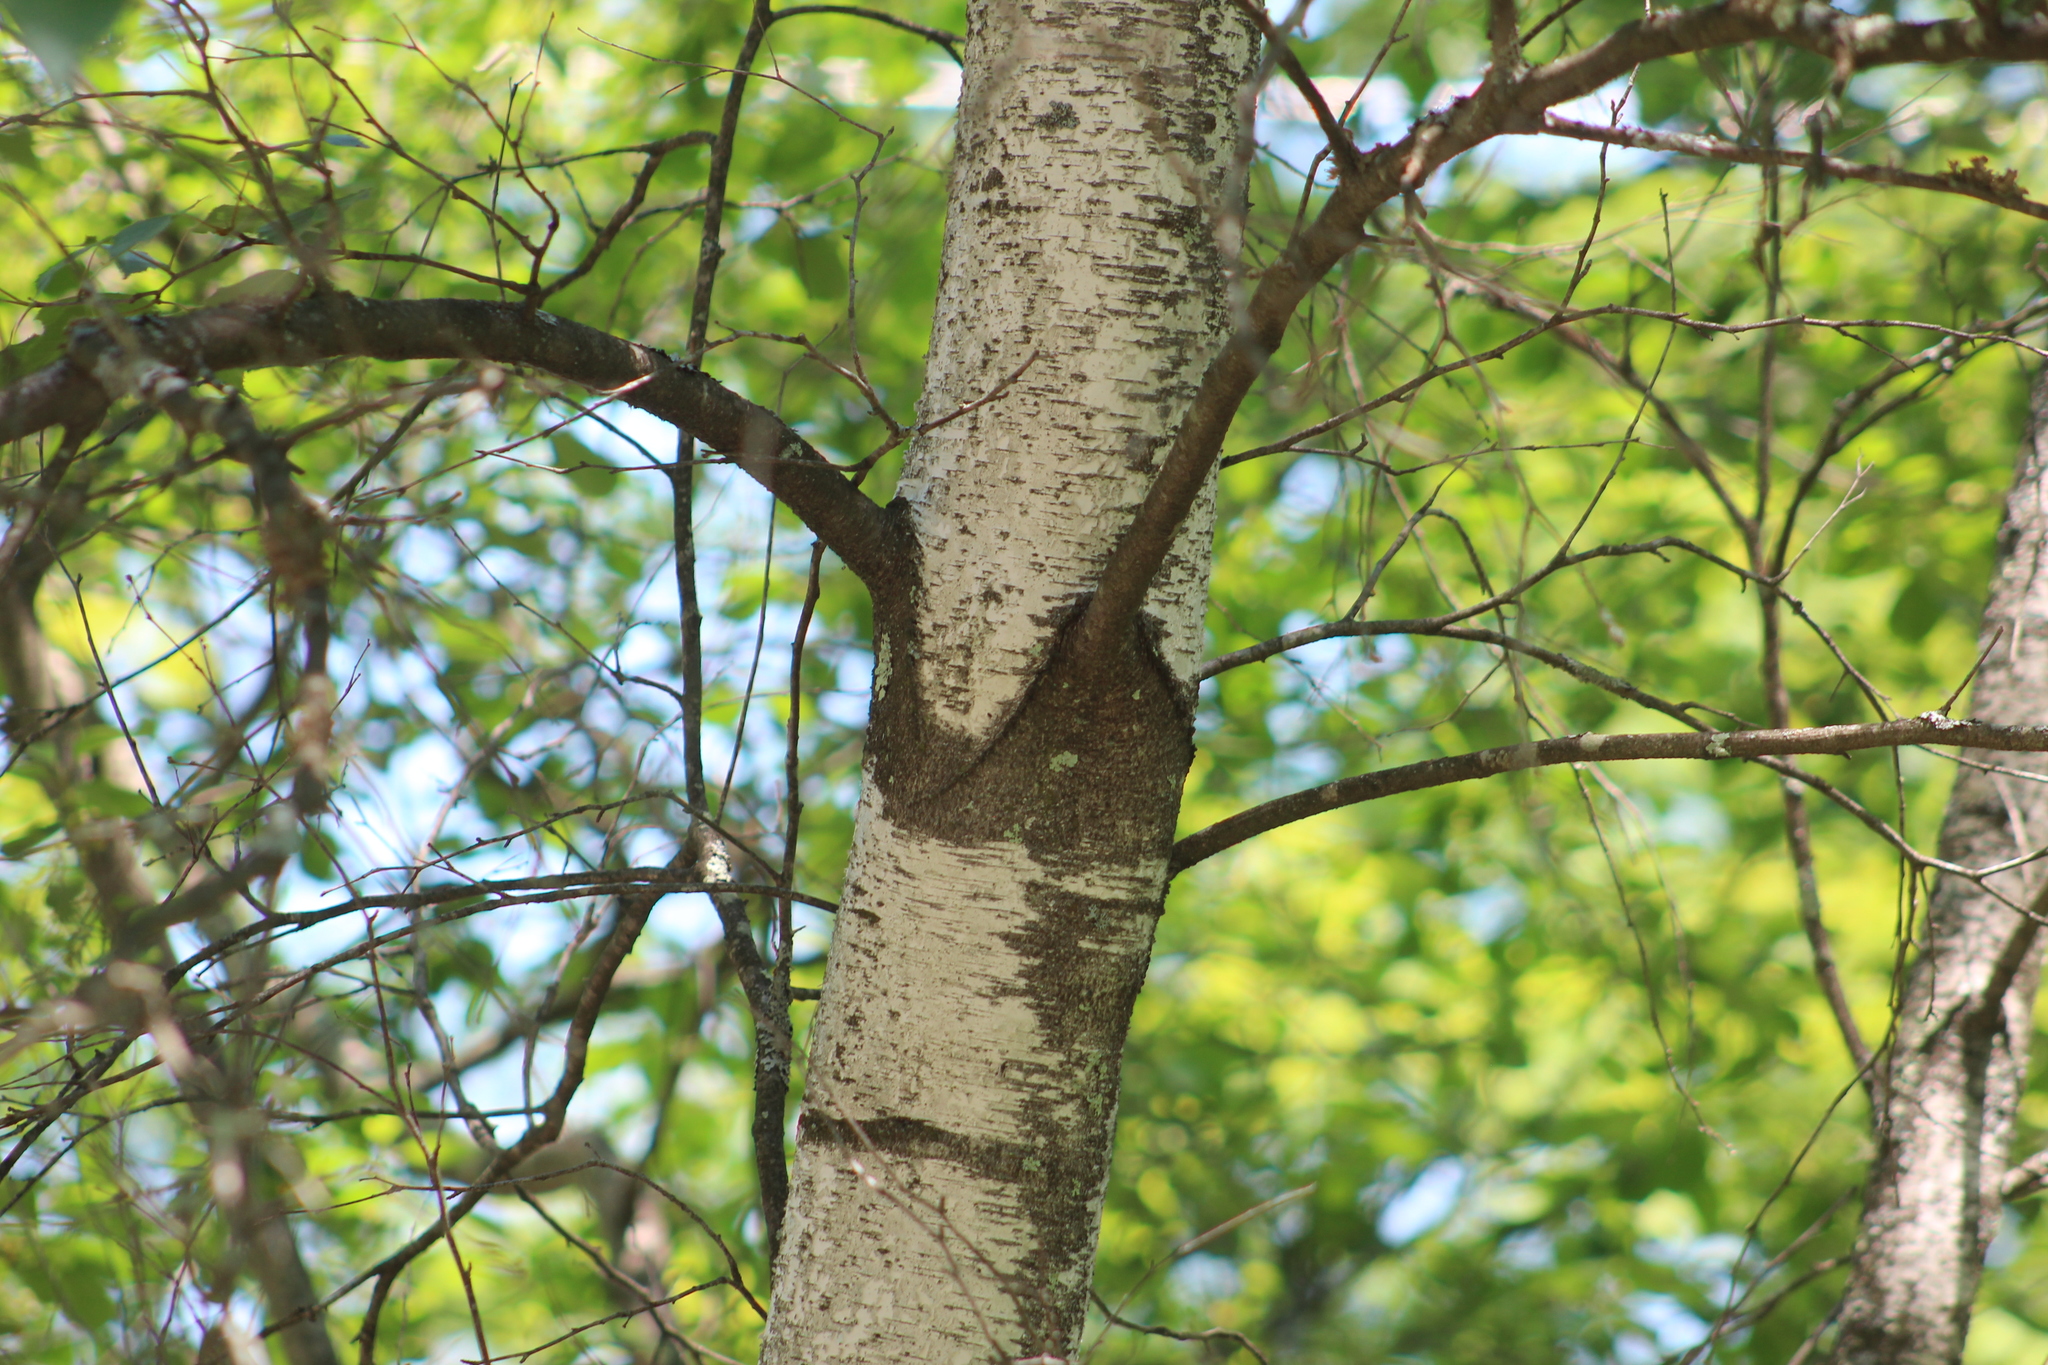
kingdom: Plantae
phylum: Tracheophyta
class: Magnoliopsida
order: Fagales
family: Betulaceae
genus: Betula
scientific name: Betula populifolia
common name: Fire birch
